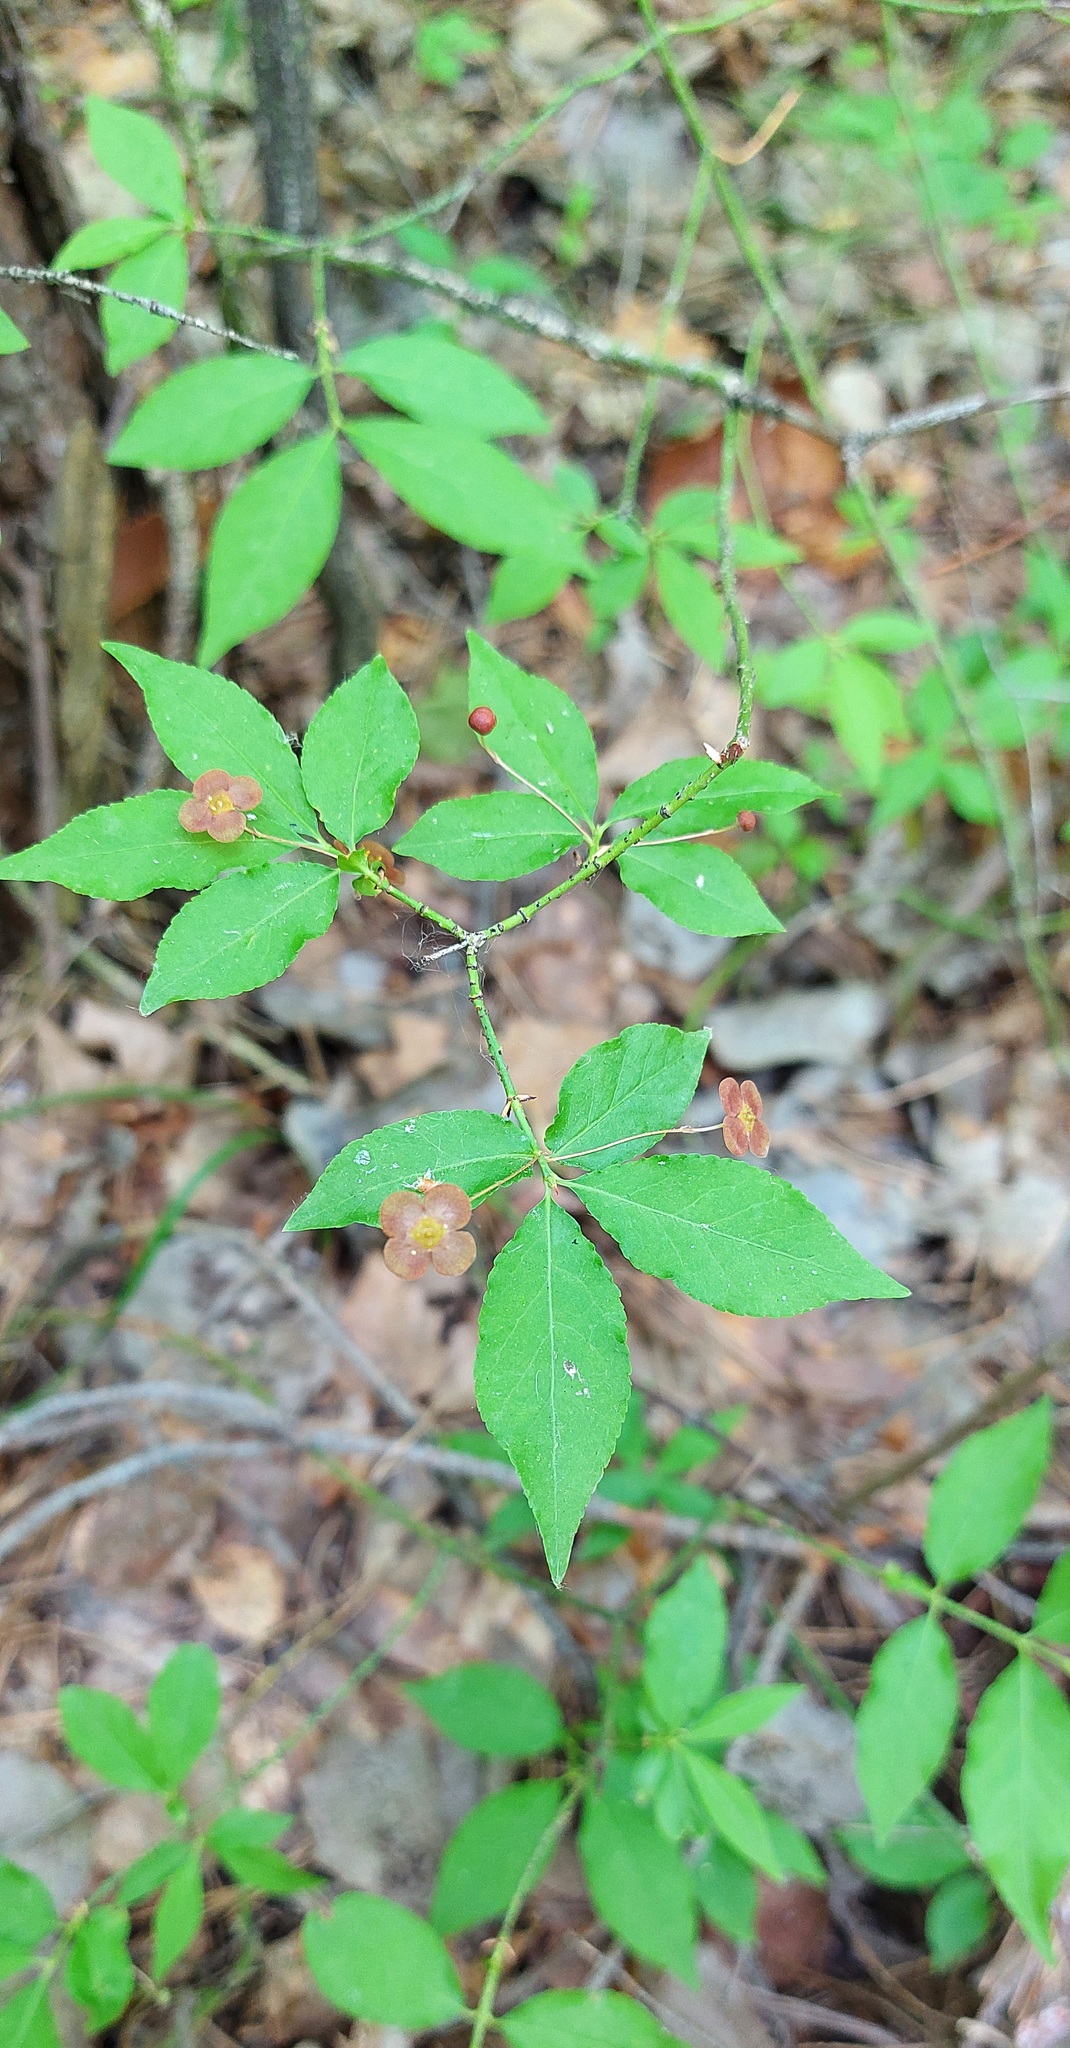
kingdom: Plantae
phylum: Tracheophyta
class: Magnoliopsida
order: Celastrales
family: Celastraceae
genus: Euonymus
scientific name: Euonymus verrucosus
